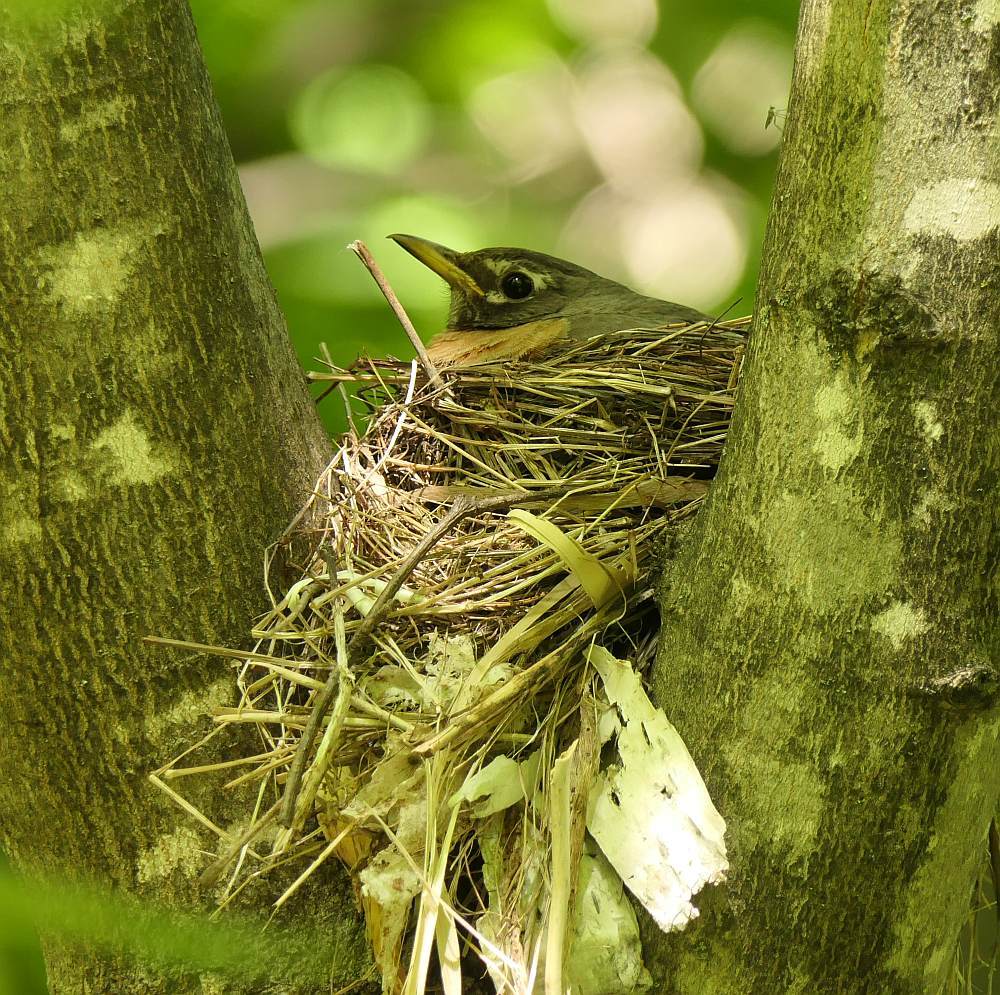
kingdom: Animalia
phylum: Chordata
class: Aves
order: Passeriformes
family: Turdidae
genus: Turdus
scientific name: Turdus migratorius
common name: American robin
